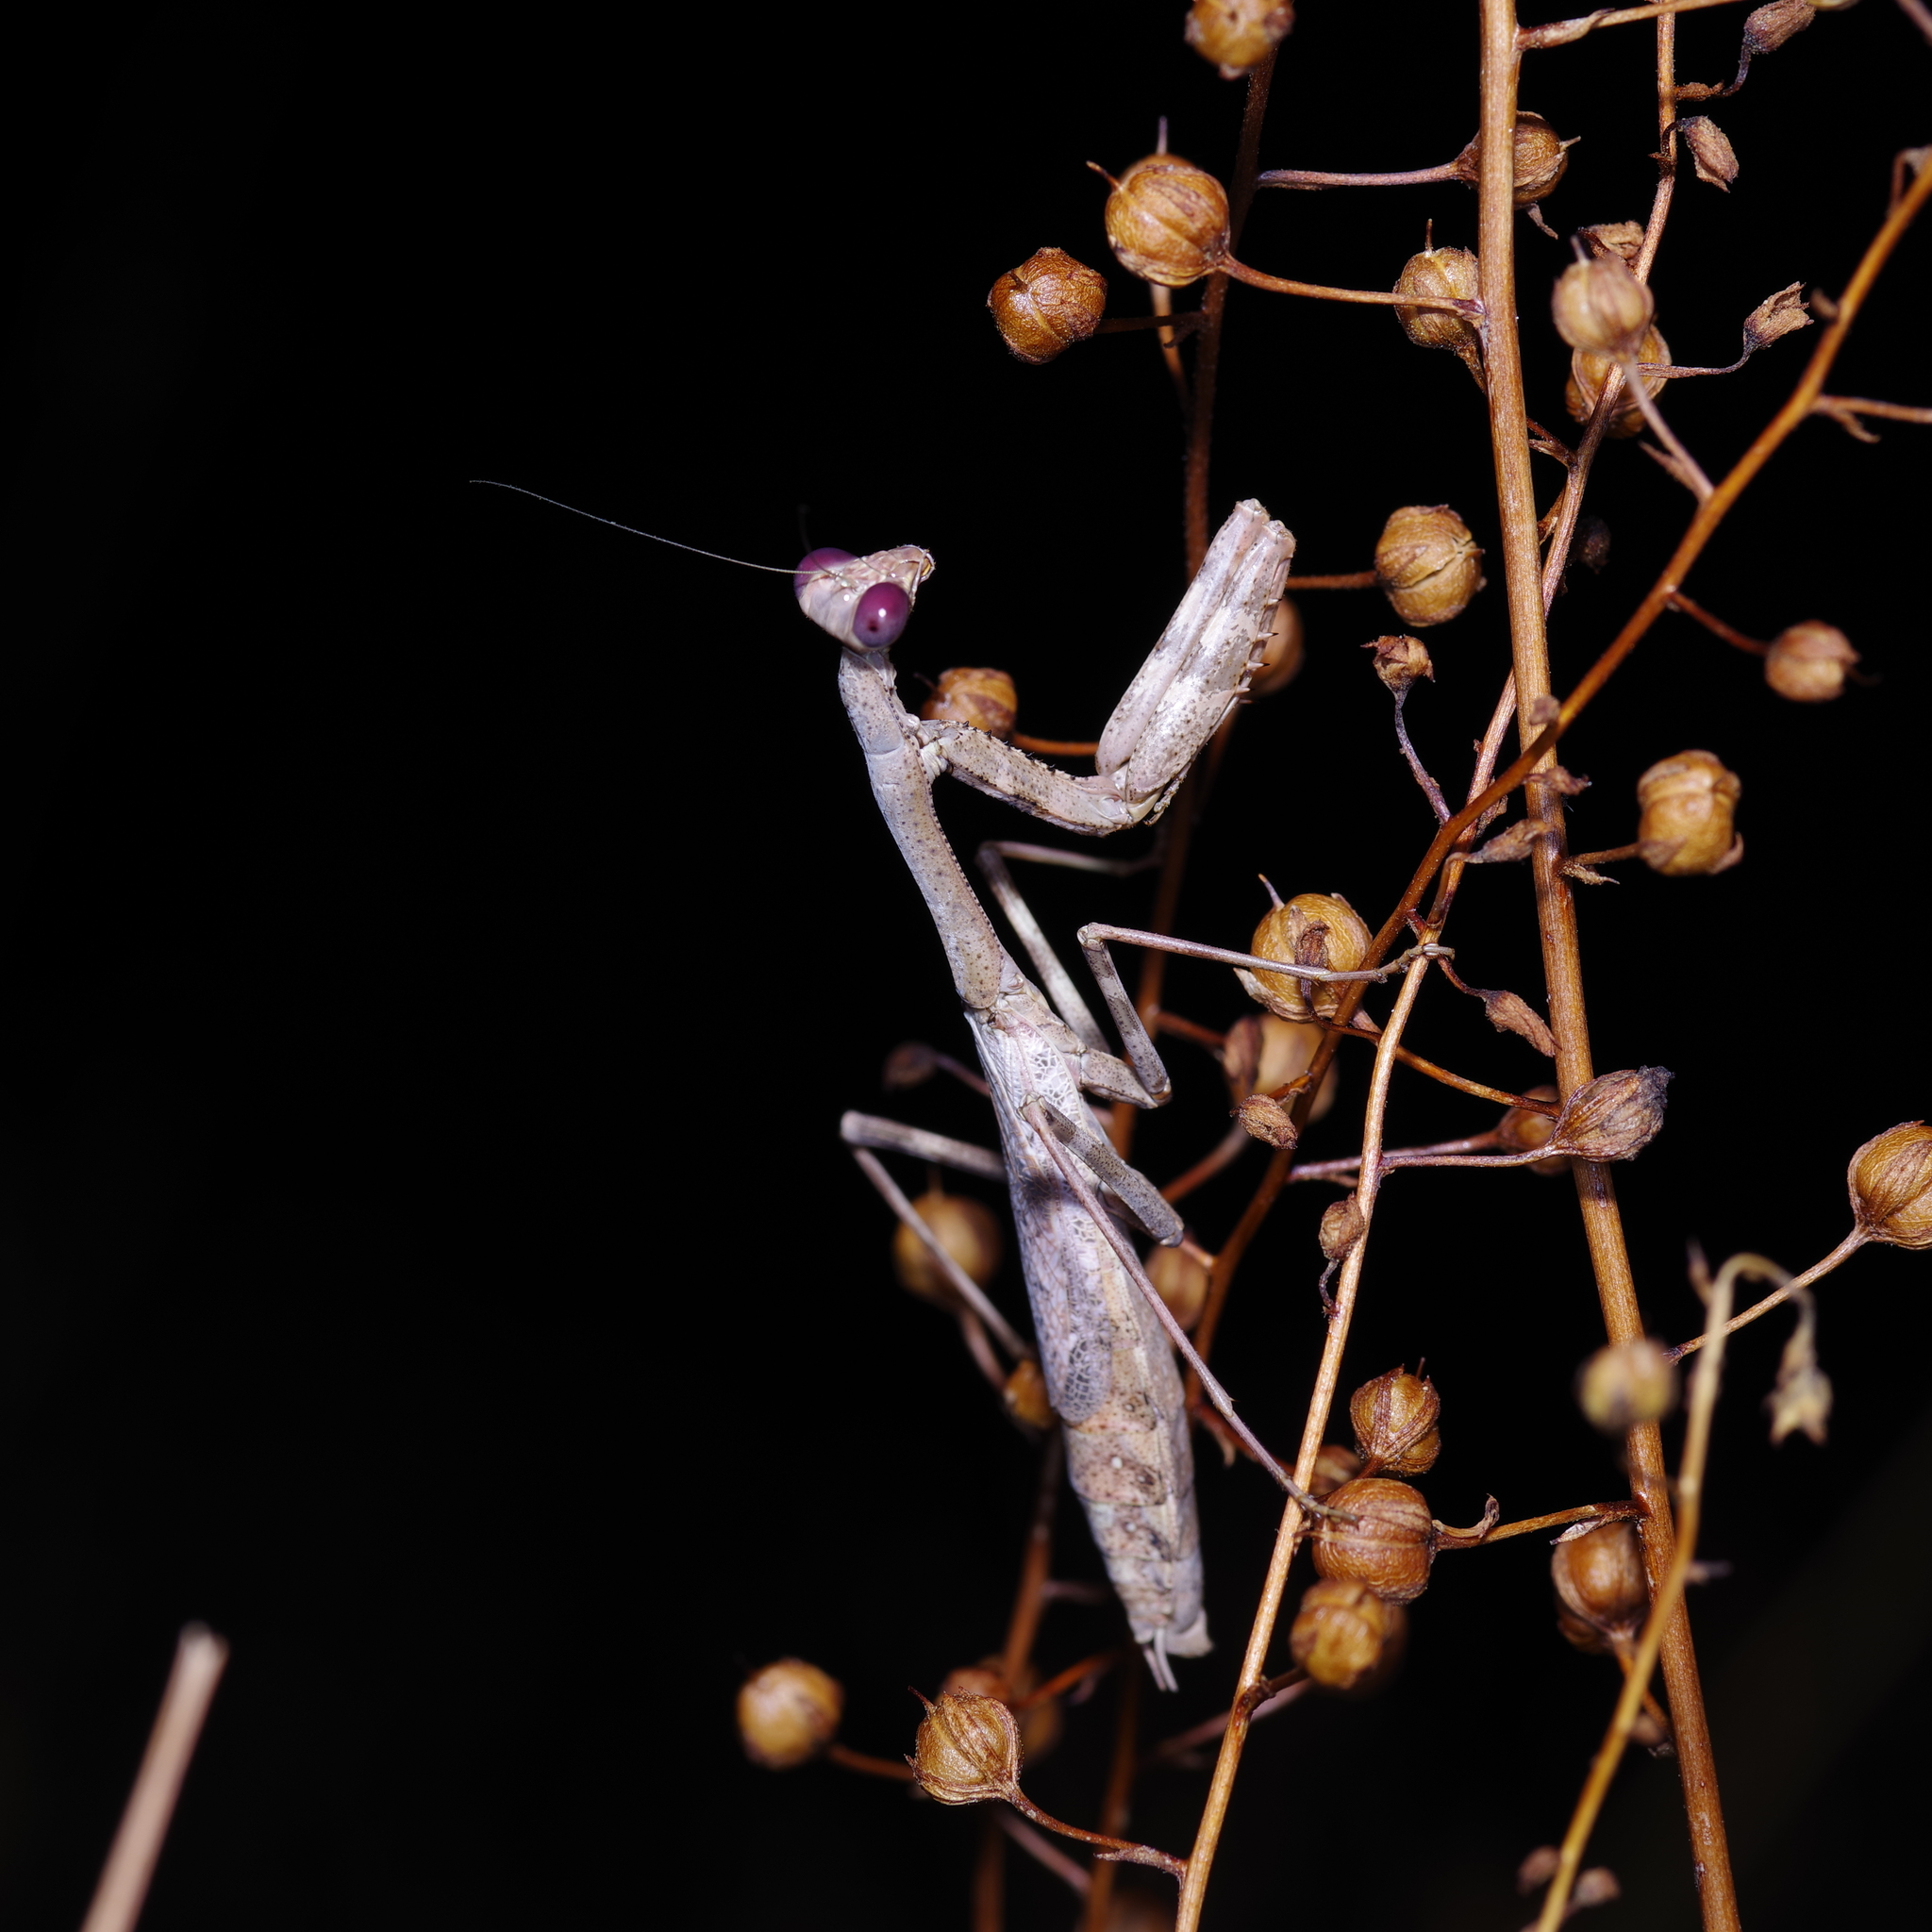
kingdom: Animalia
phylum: Arthropoda
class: Insecta
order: Mantodea
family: Mantidae
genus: Stagmomantis
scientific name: Stagmomantis carolina
